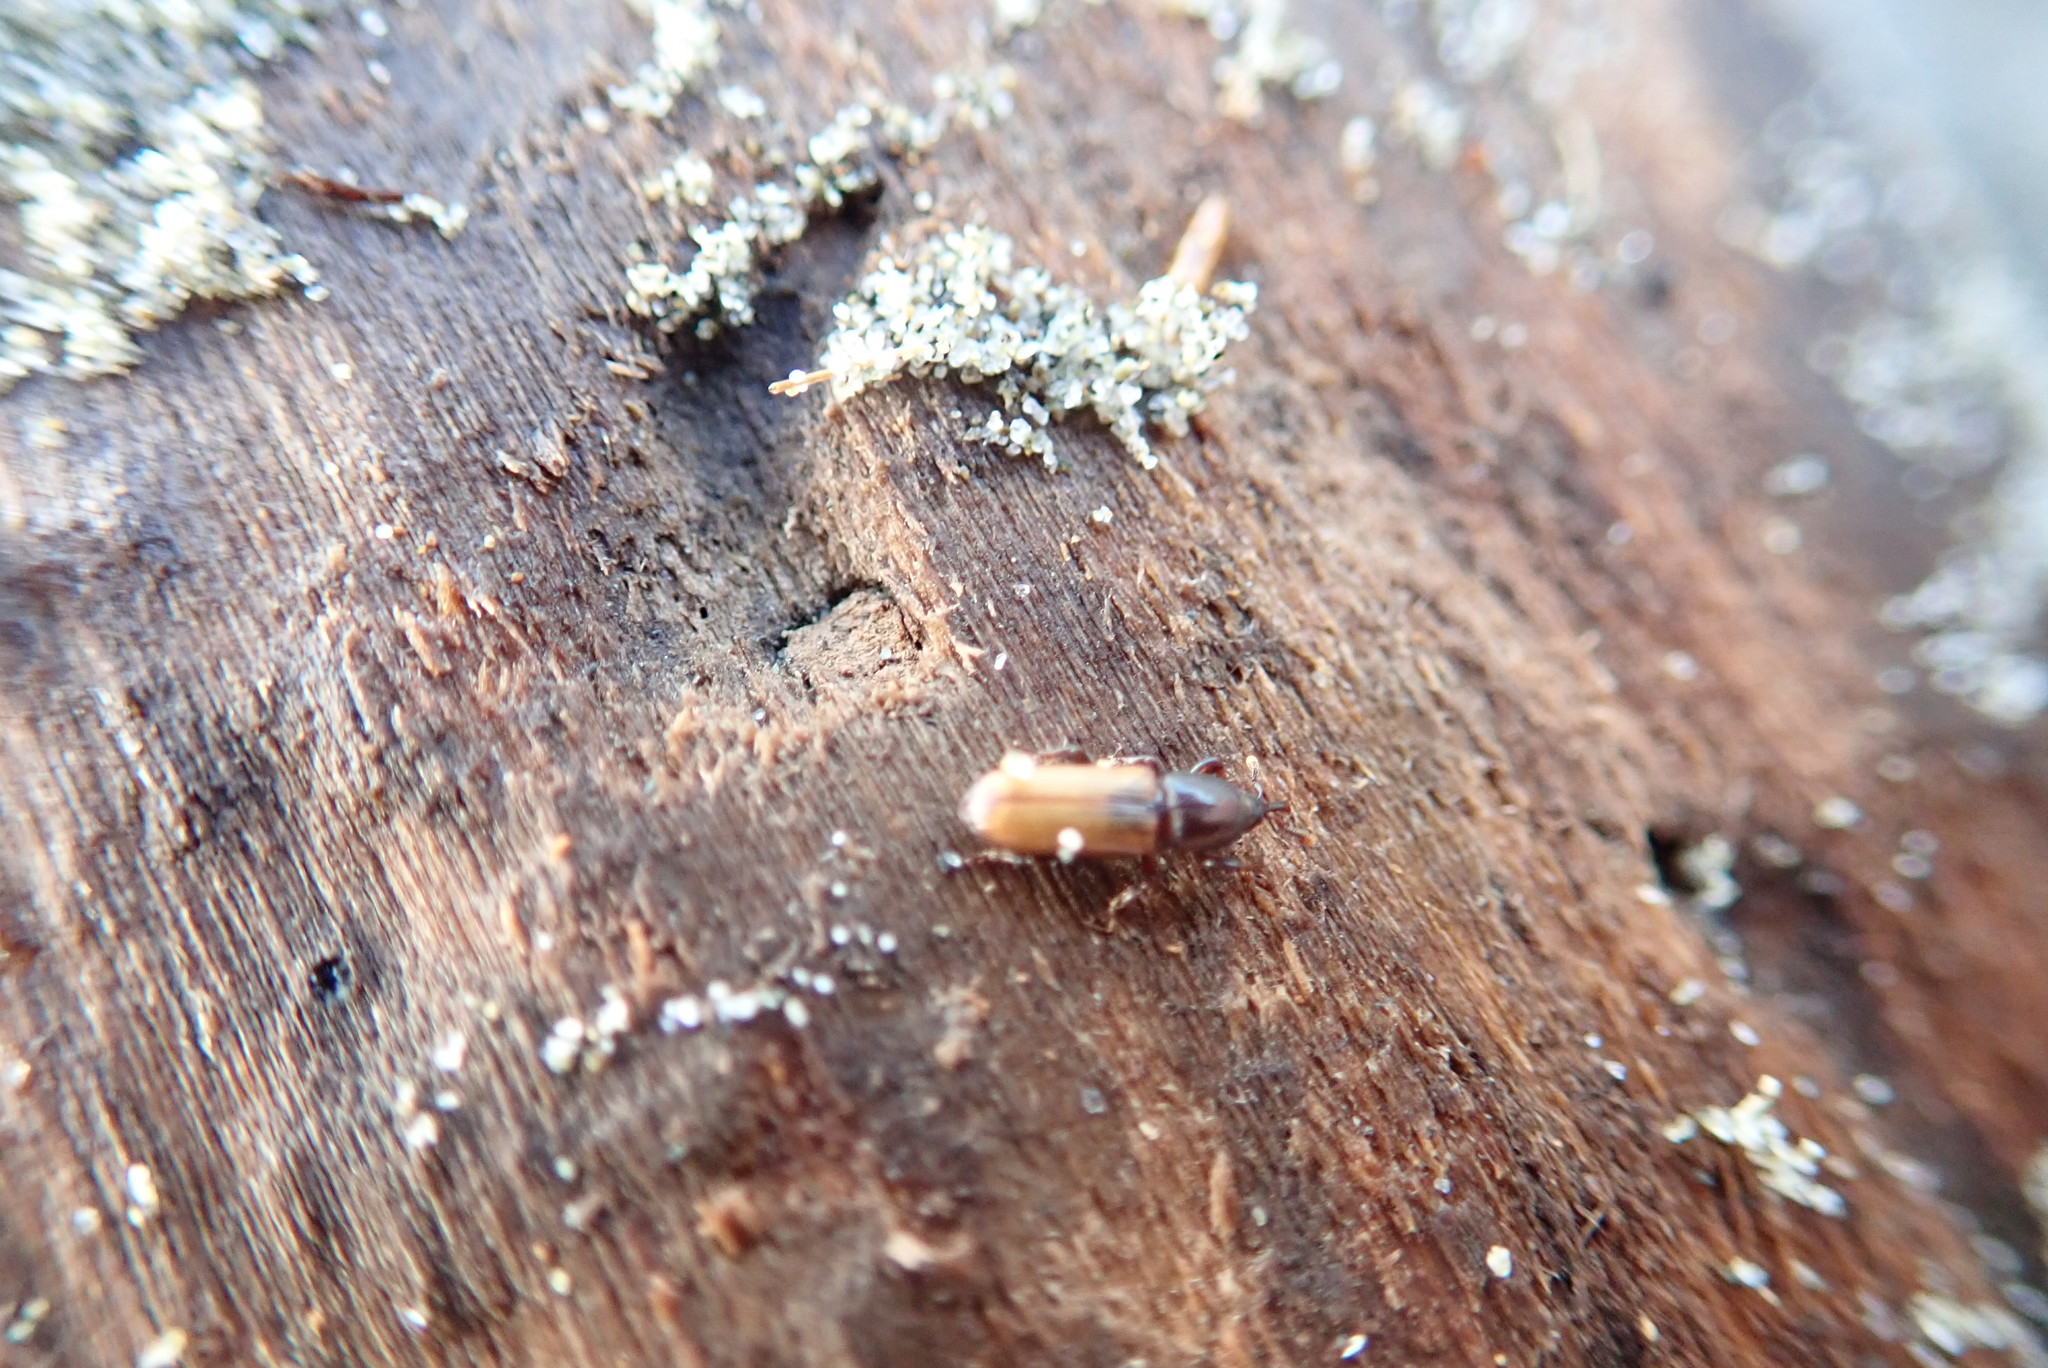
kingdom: Animalia
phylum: Arthropoda
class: Insecta
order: Coleoptera
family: Curculionidae
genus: Mesites
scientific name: Mesites pallidipennis
